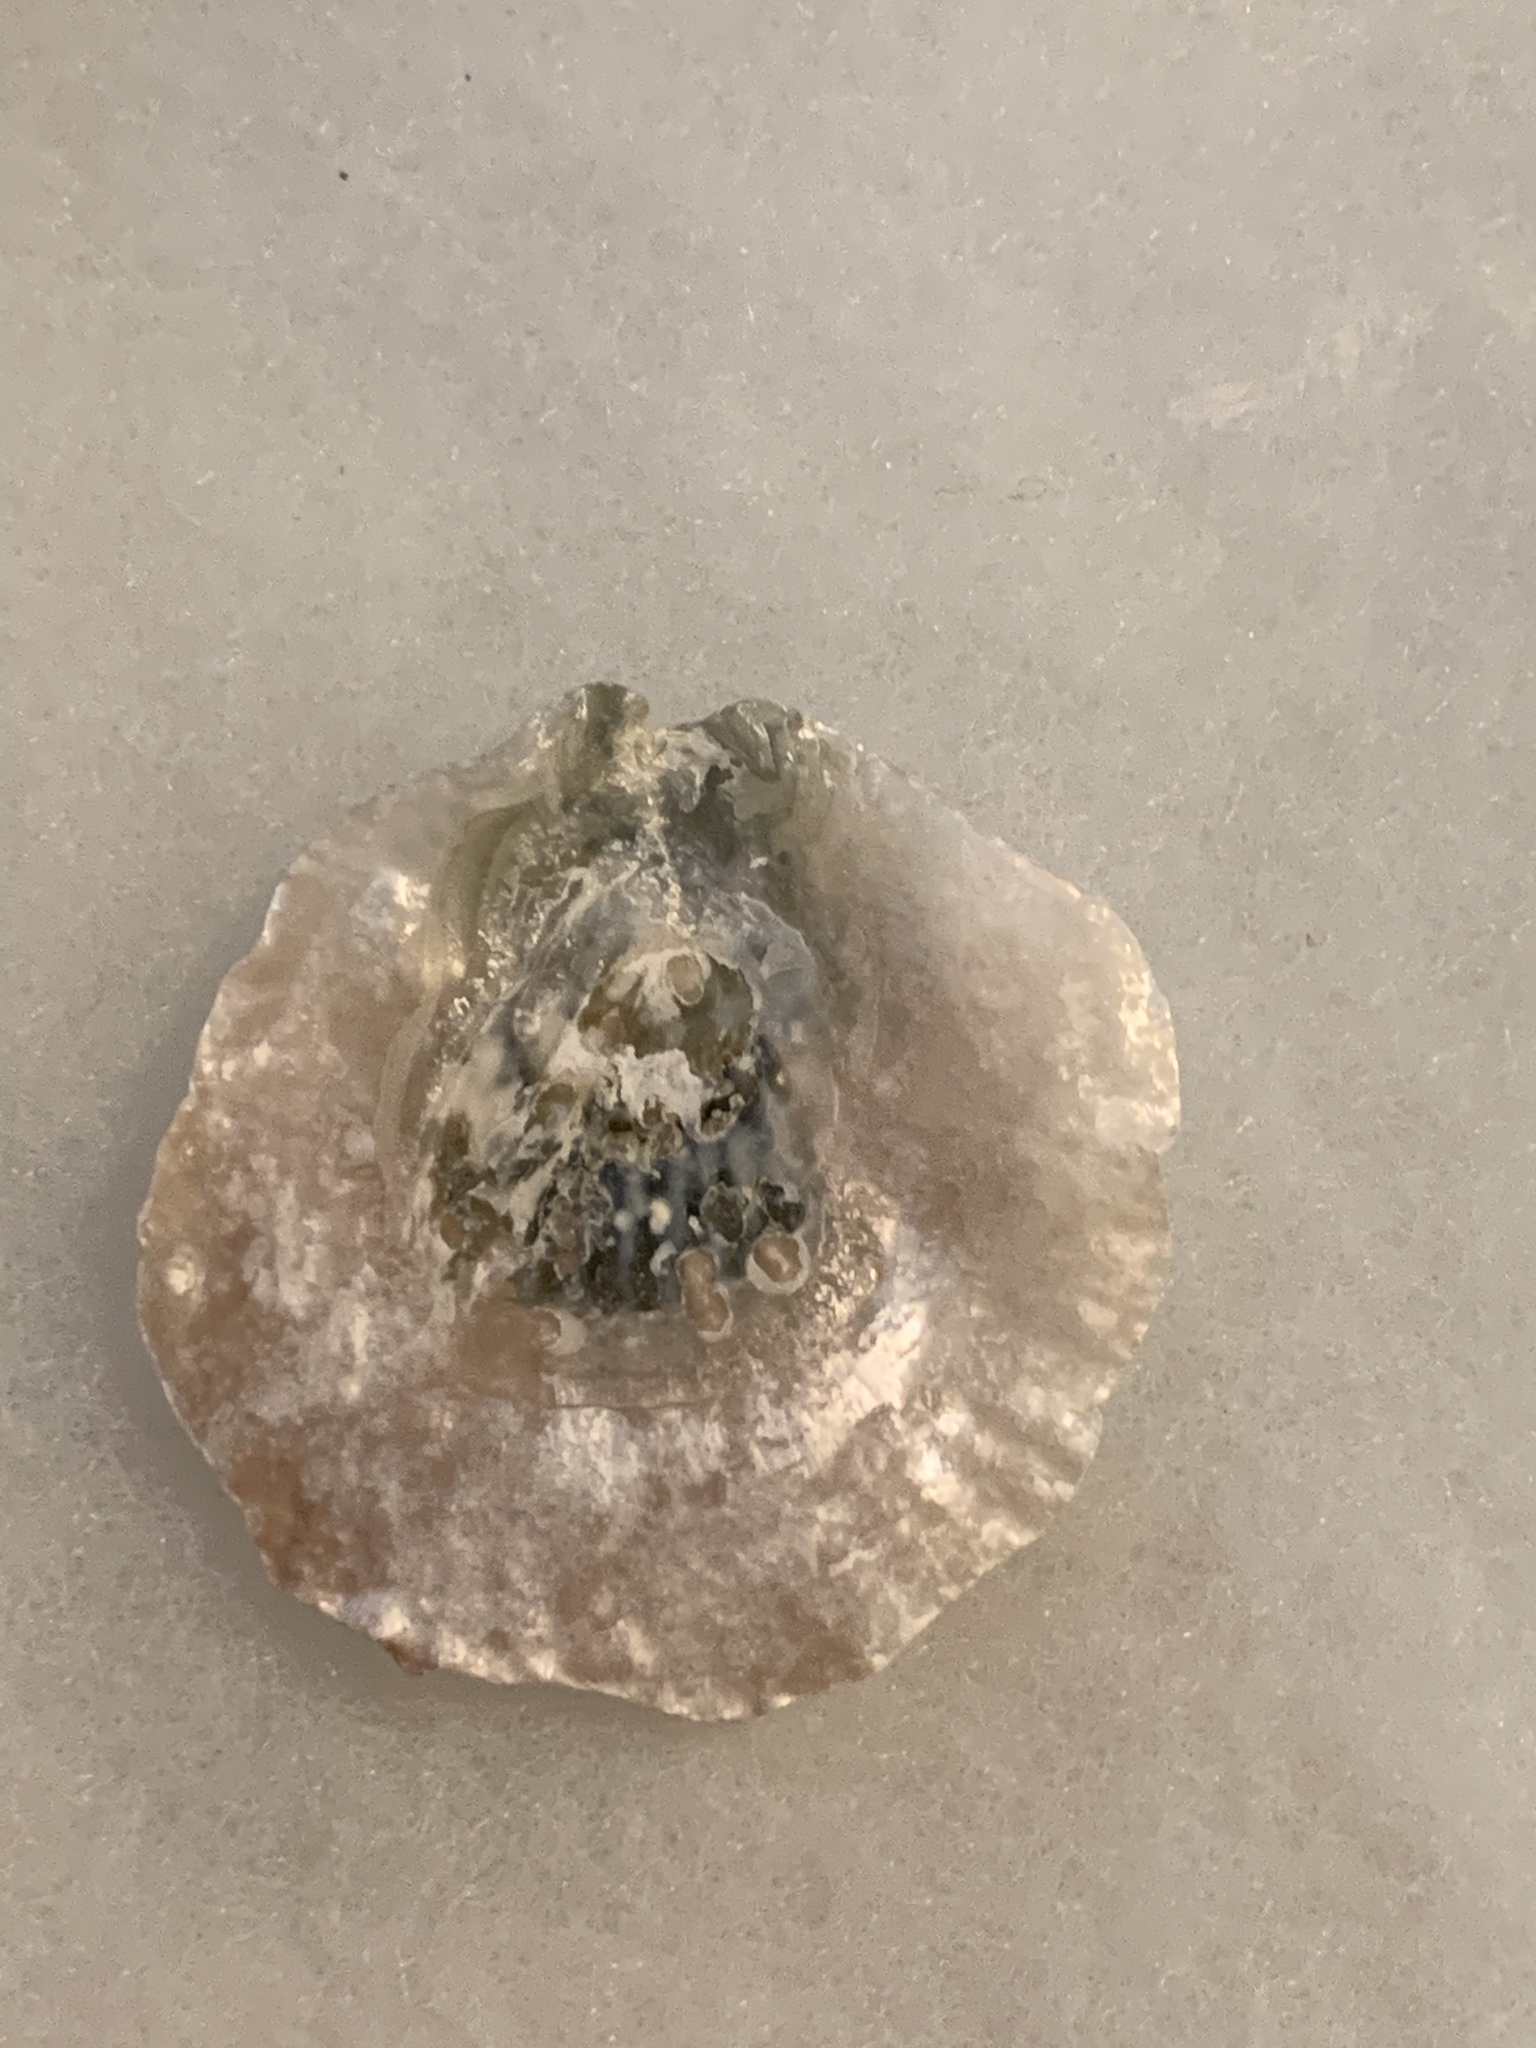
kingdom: Animalia
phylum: Mollusca
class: Bivalvia
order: Pectinida
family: Anomiidae
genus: Pododesmus
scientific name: Pododesmus macrochisma
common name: Alaska jingle
